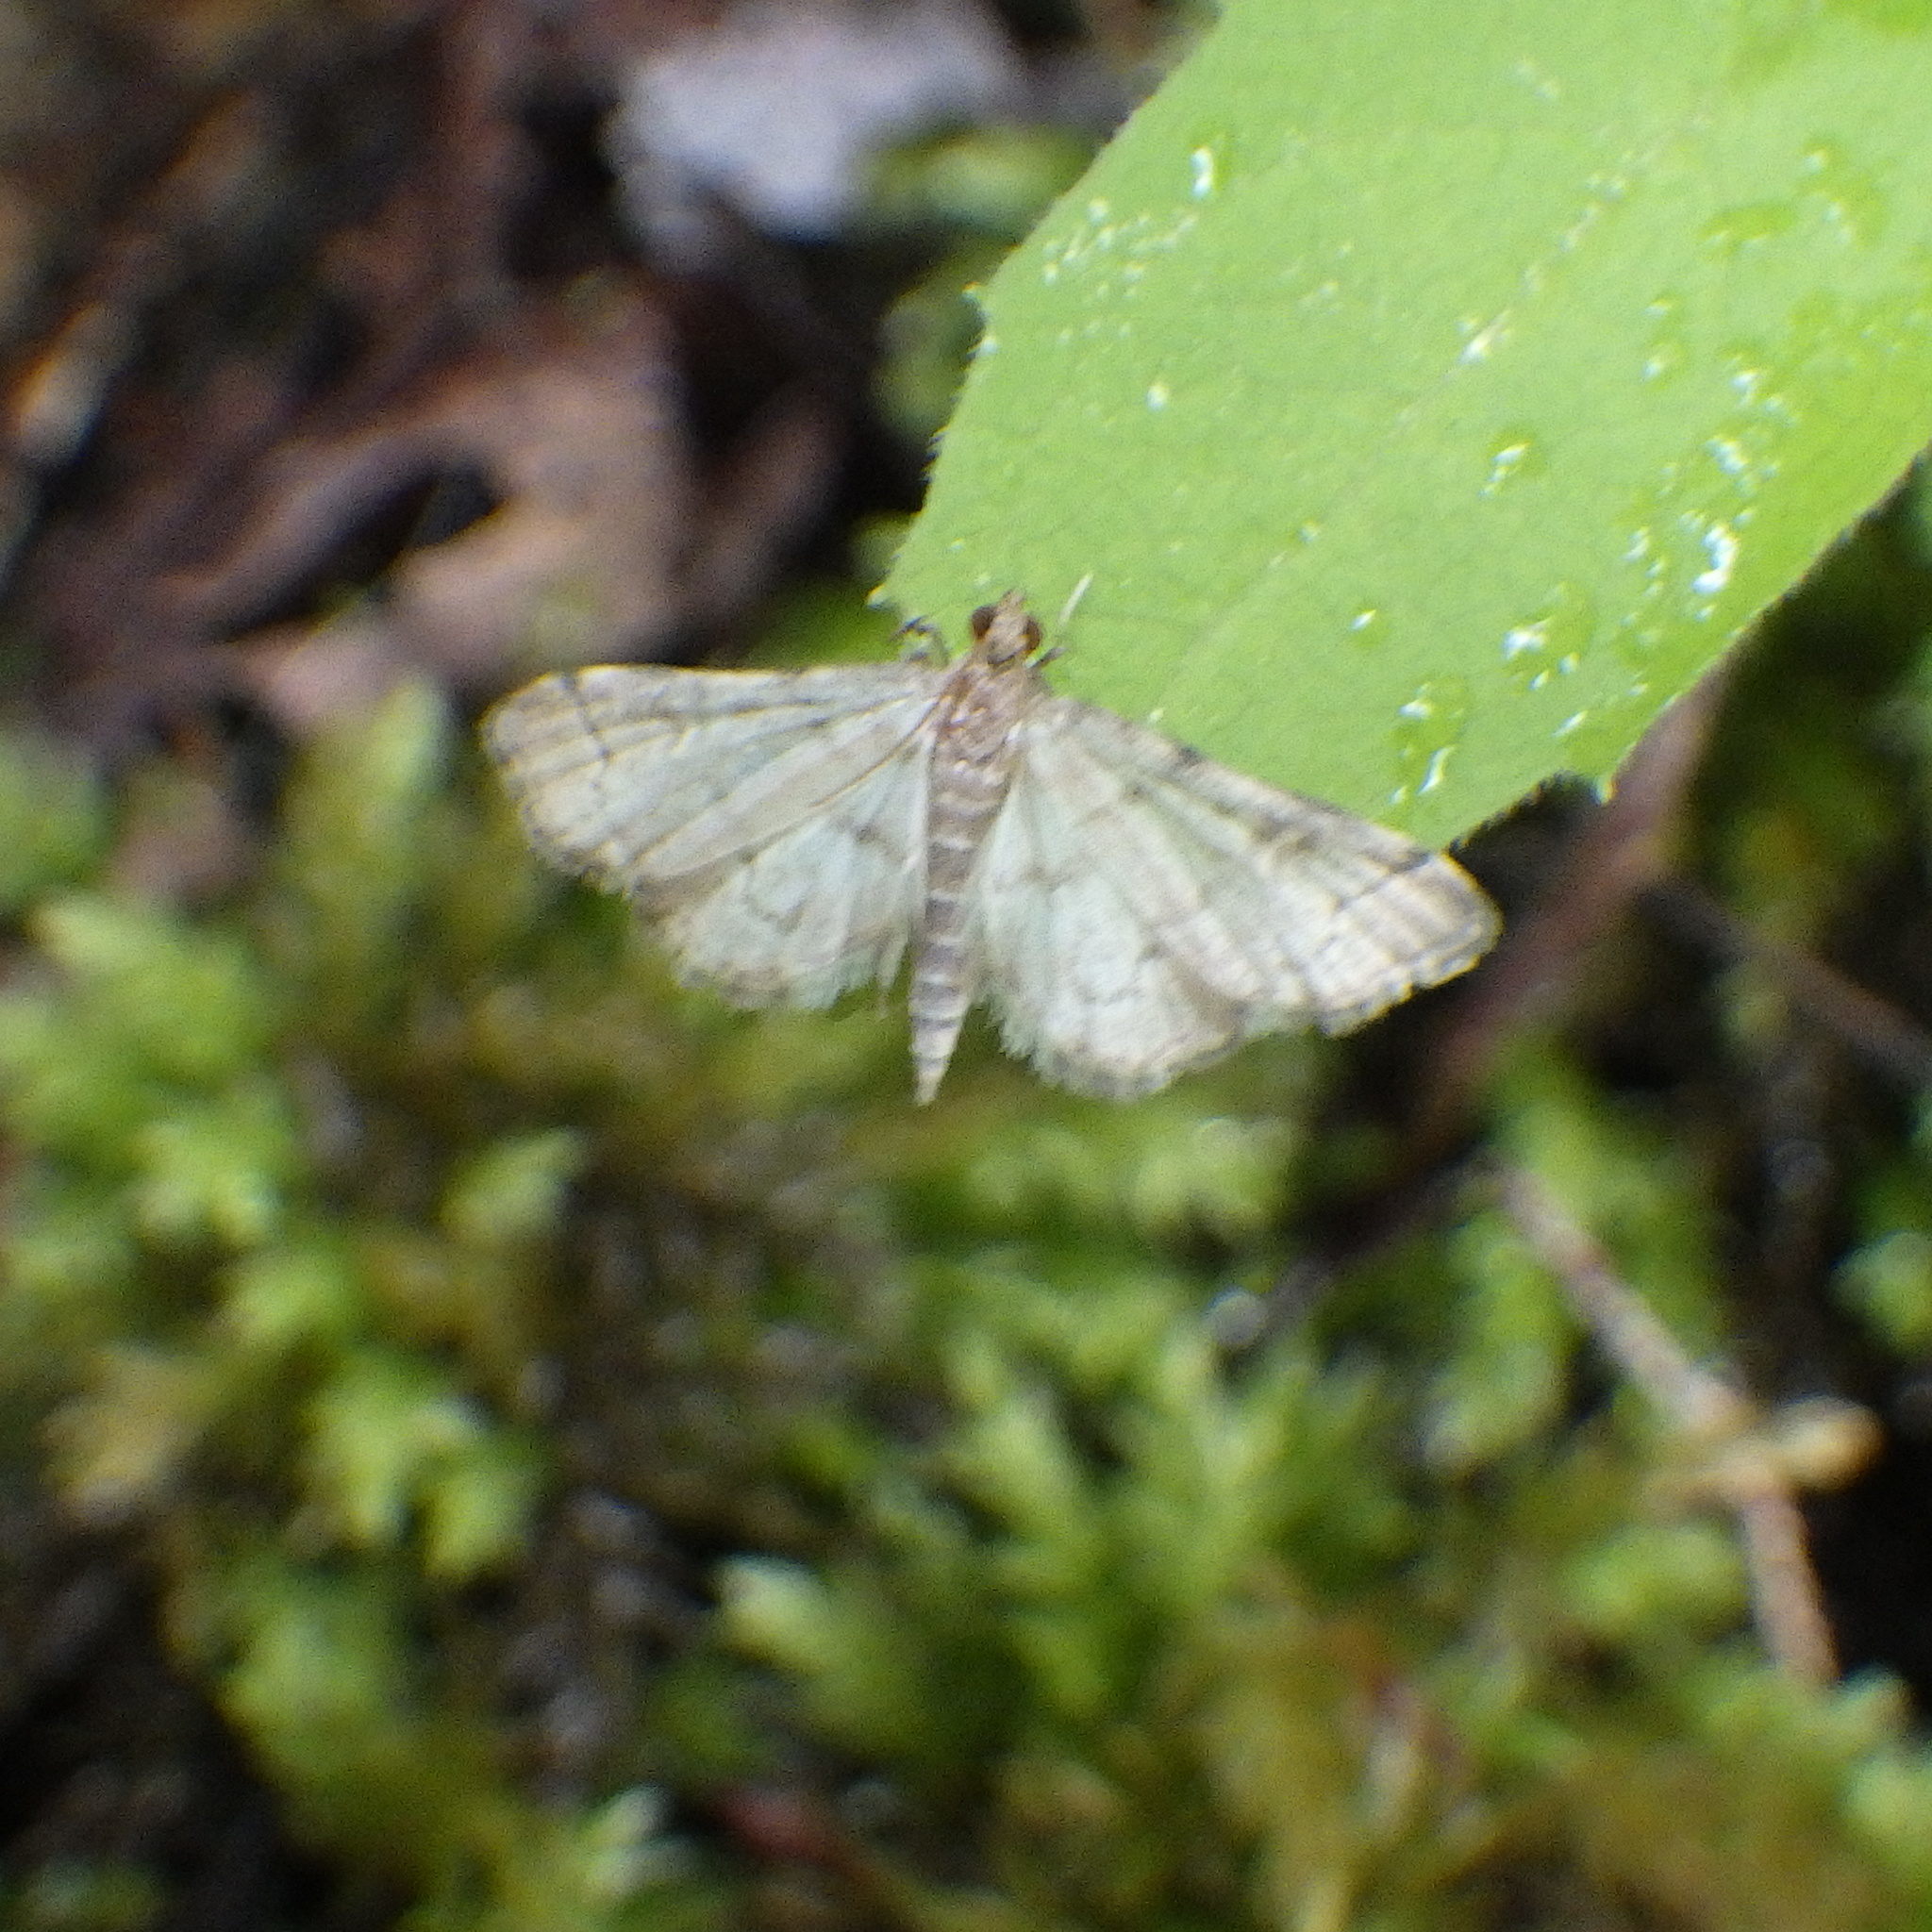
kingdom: Animalia
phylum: Arthropoda
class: Insecta
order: Lepidoptera
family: Crambidae
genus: Anageshna
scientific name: Anageshna primordialis
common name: Yellow-spotted webworm moth
